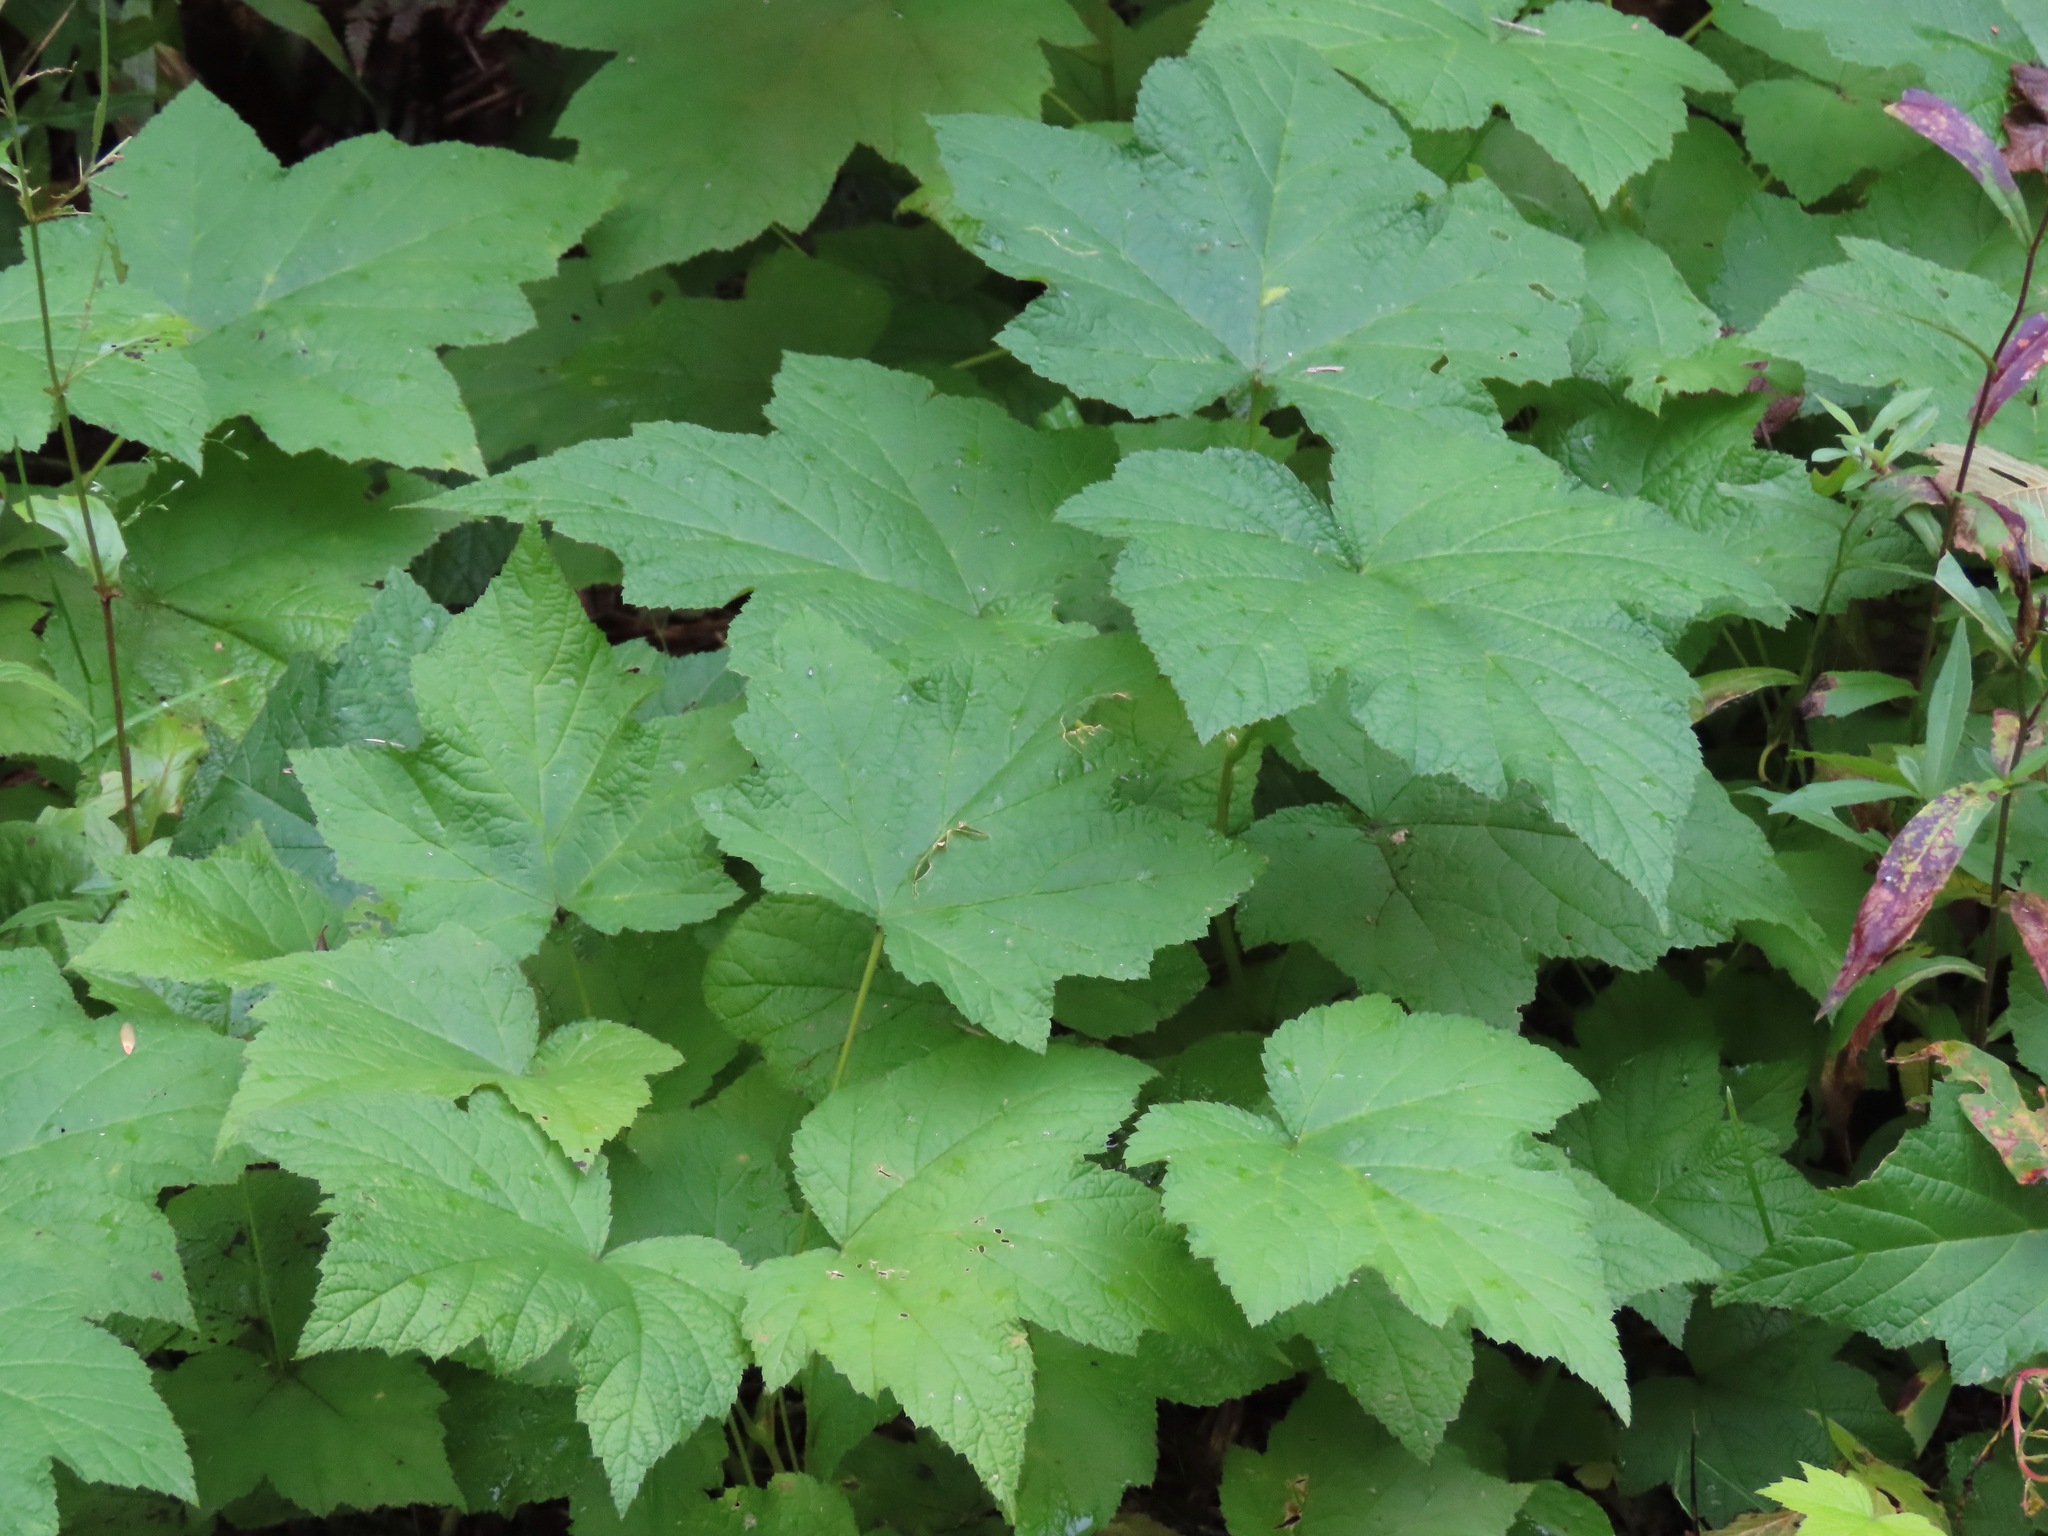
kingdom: Plantae
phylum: Tracheophyta
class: Magnoliopsida
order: Rosales
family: Rosaceae
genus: Rubus
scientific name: Rubus parviflorus
